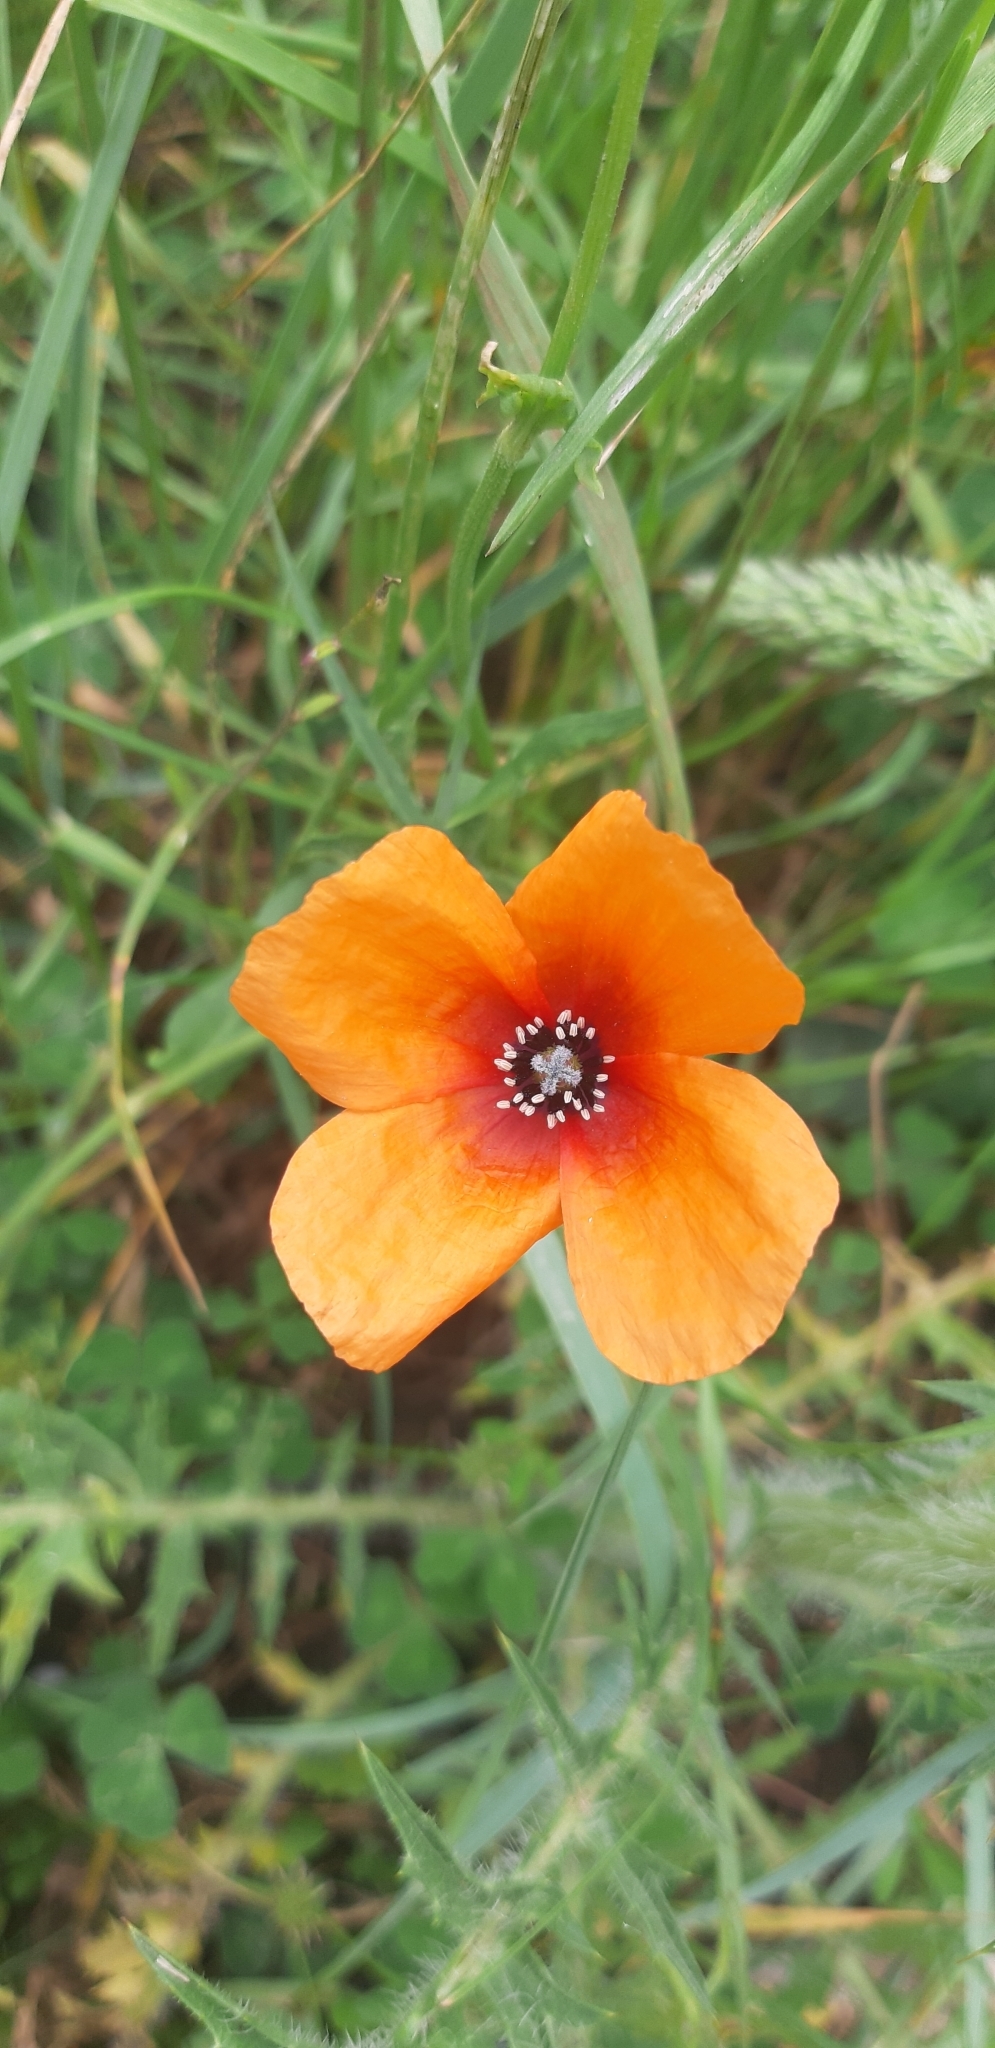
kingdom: Plantae
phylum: Tracheophyta
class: Magnoliopsida
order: Ranunculales
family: Papaveraceae
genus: Roemeria
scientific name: Roemeria apula
